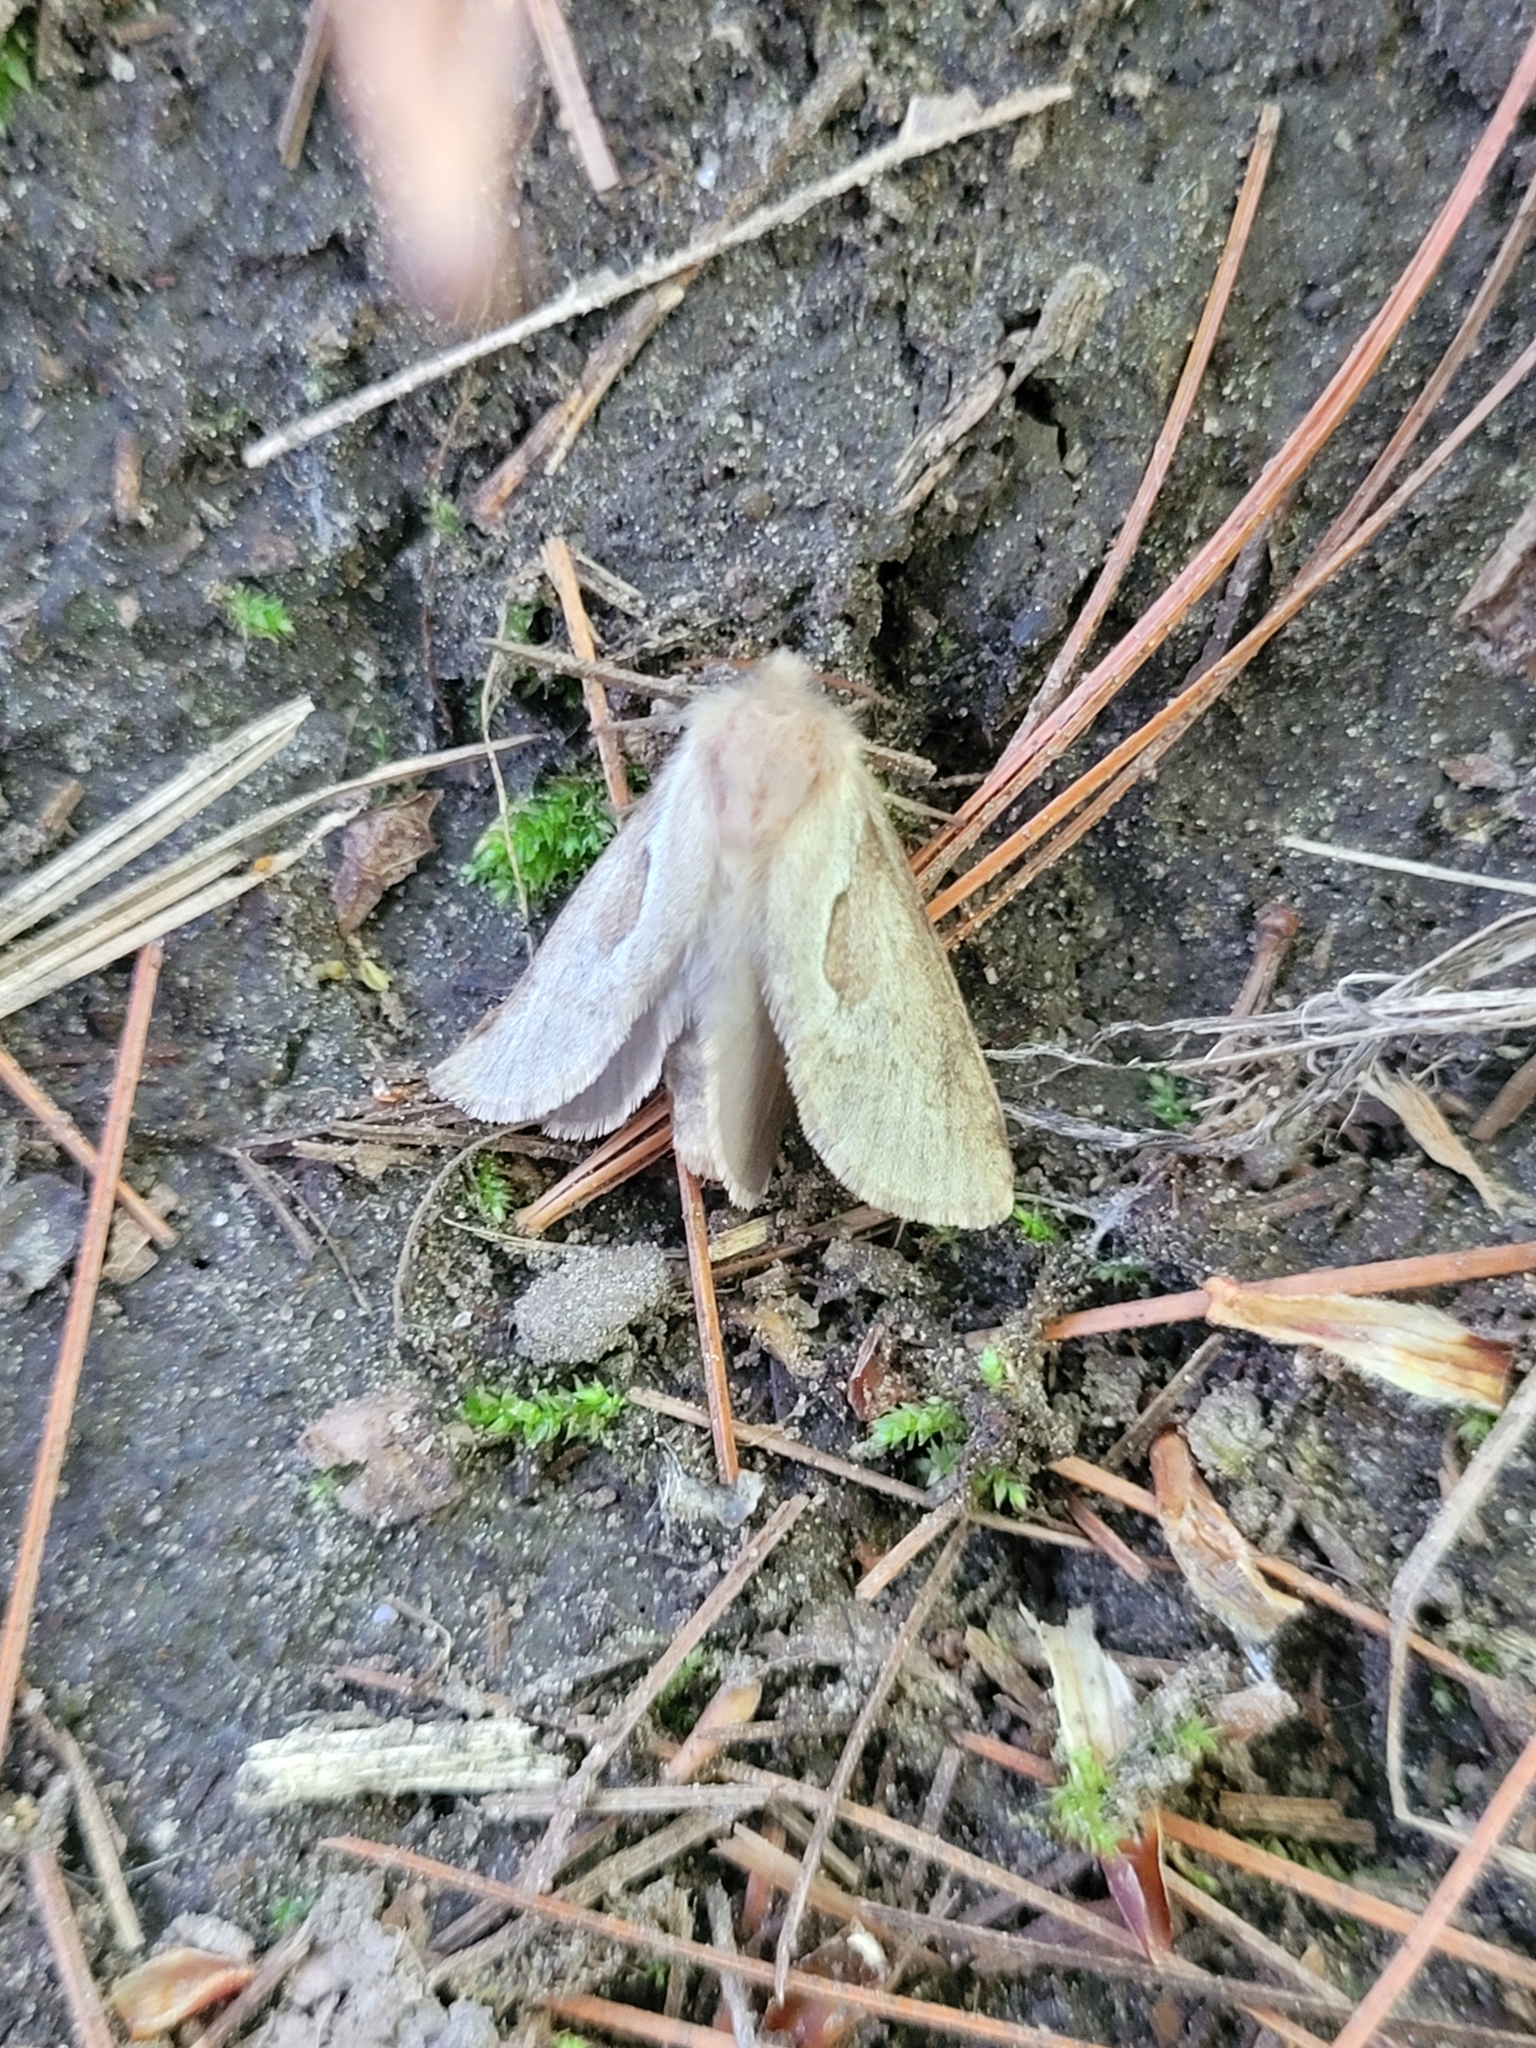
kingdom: Animalia
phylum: Arthropoda
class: Insecta
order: Lepidoptera
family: Hepialidae
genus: Korscheltellus
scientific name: Korscheltellus lupulina
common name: Common swift
